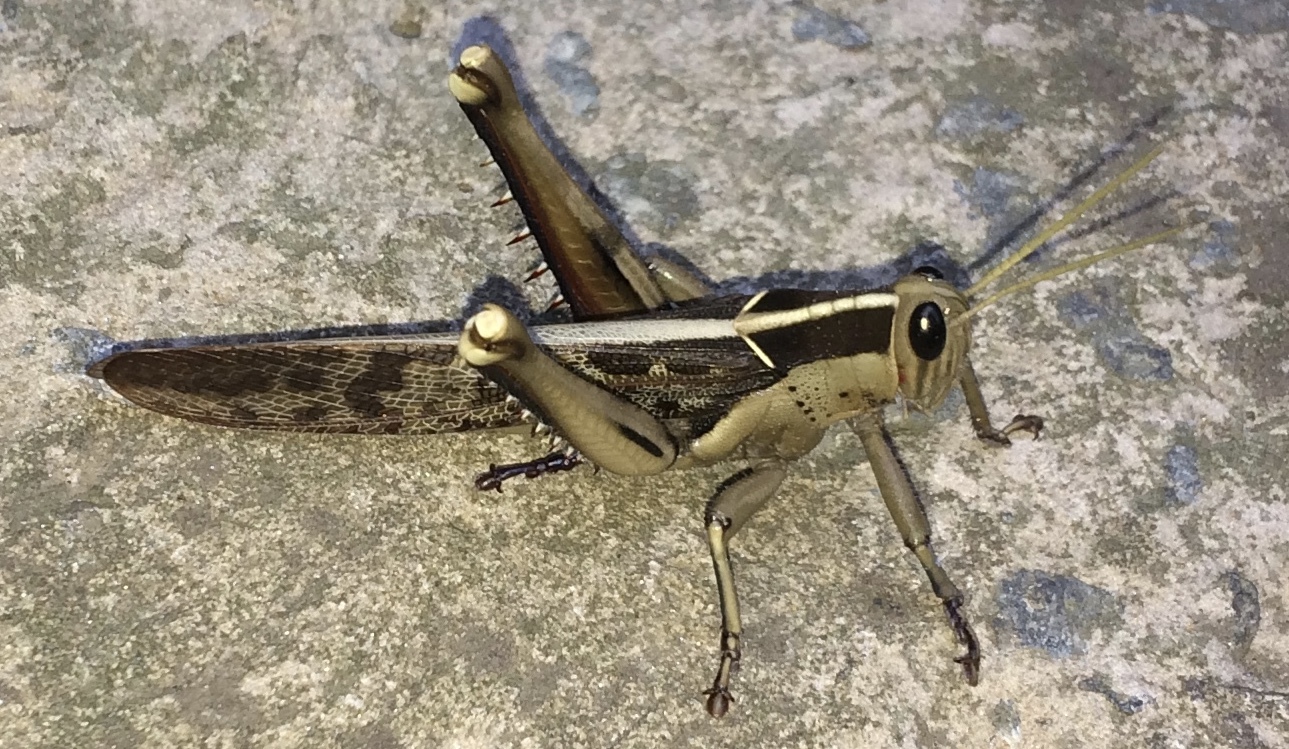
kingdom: Animalia
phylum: Arthropoda
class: Insecta
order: Orthoptera
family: Acrididae
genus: Acanthacris
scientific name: Acanthacris ruficornis
